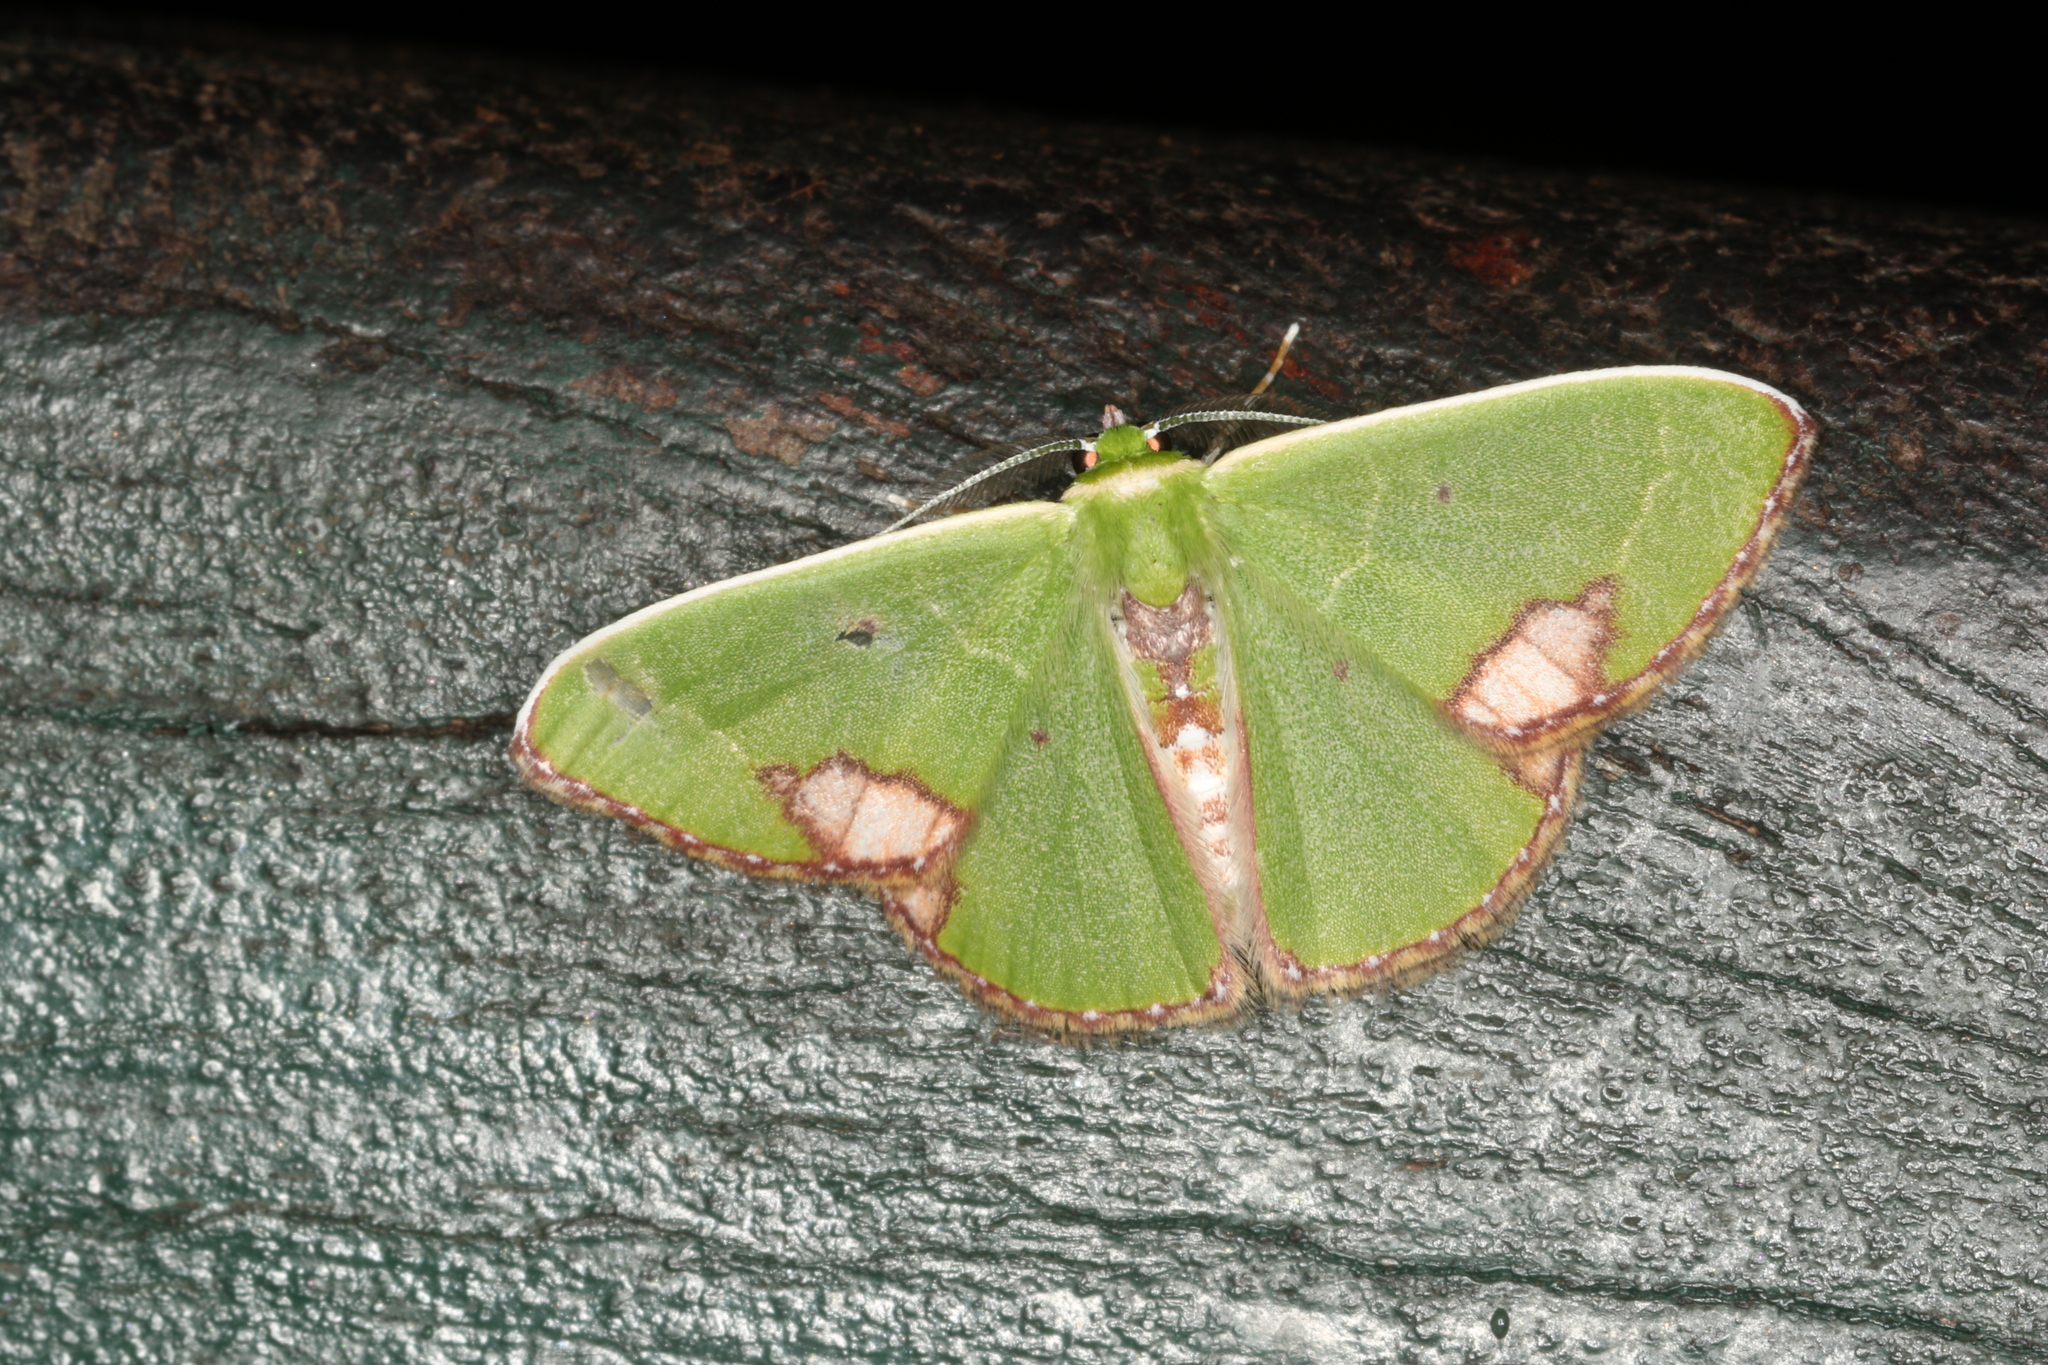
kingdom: Animalia
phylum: Arthropoda
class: Insecta
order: Lepidoptera
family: Geometridae
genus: Comibaena
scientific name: Comibaena mariae
